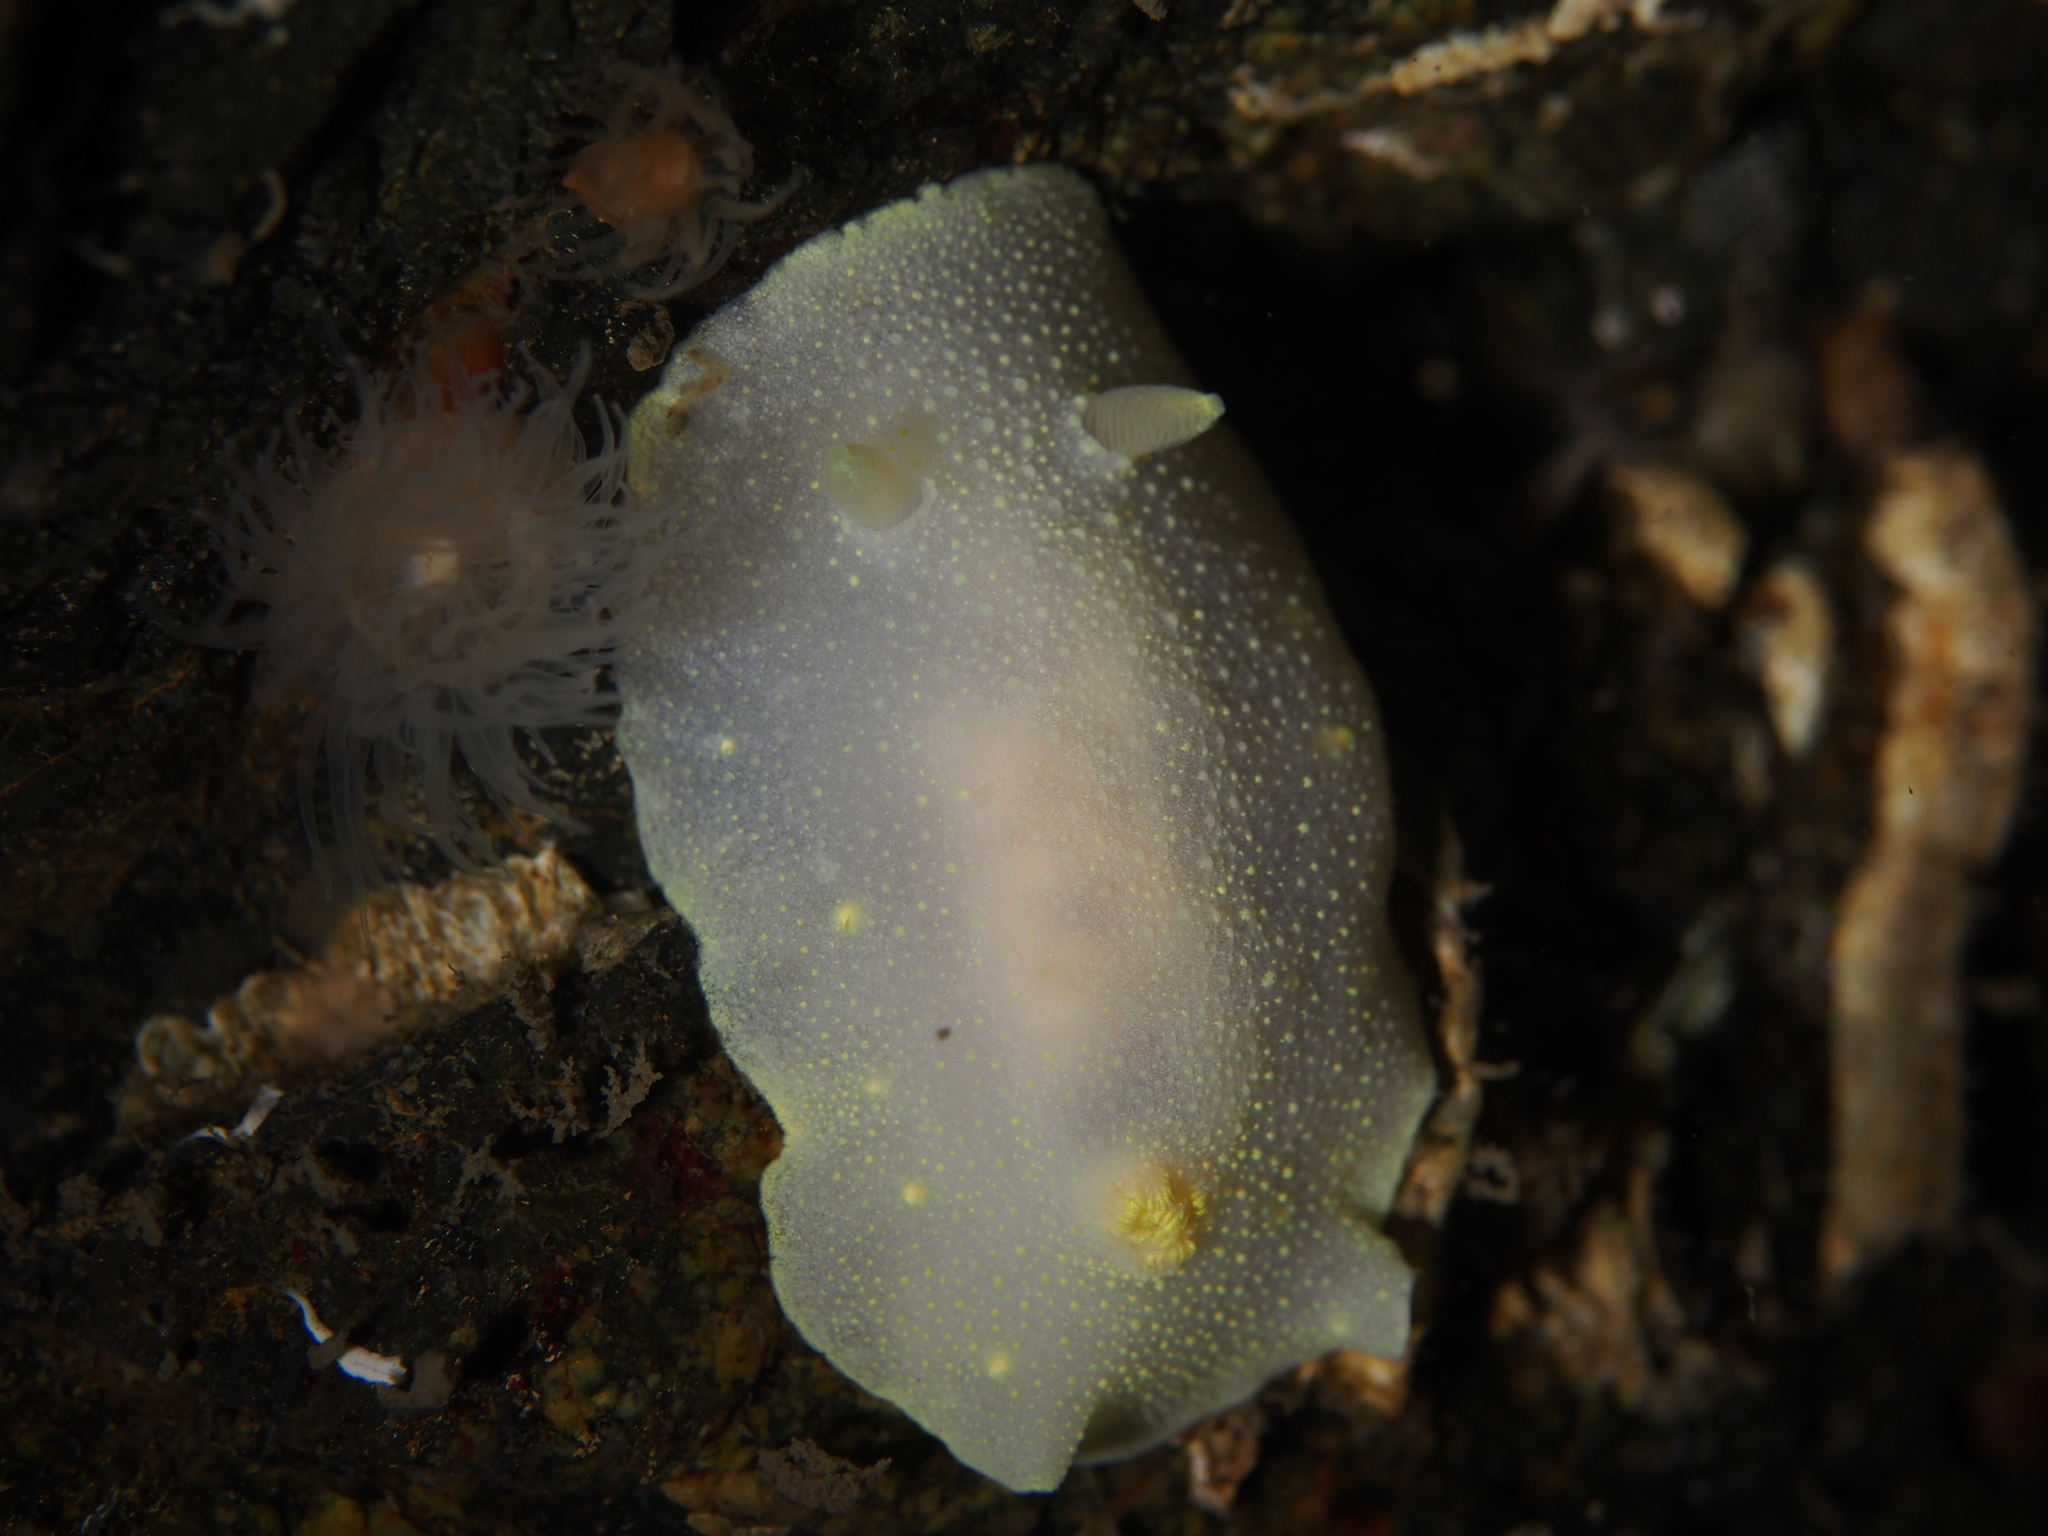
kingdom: Animalia
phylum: Mollusca
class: Gastropoda
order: Nudibranchia
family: Cadlinidae
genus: Cadlina
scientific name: Cadlina laevis
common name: White atlantic cadlina
